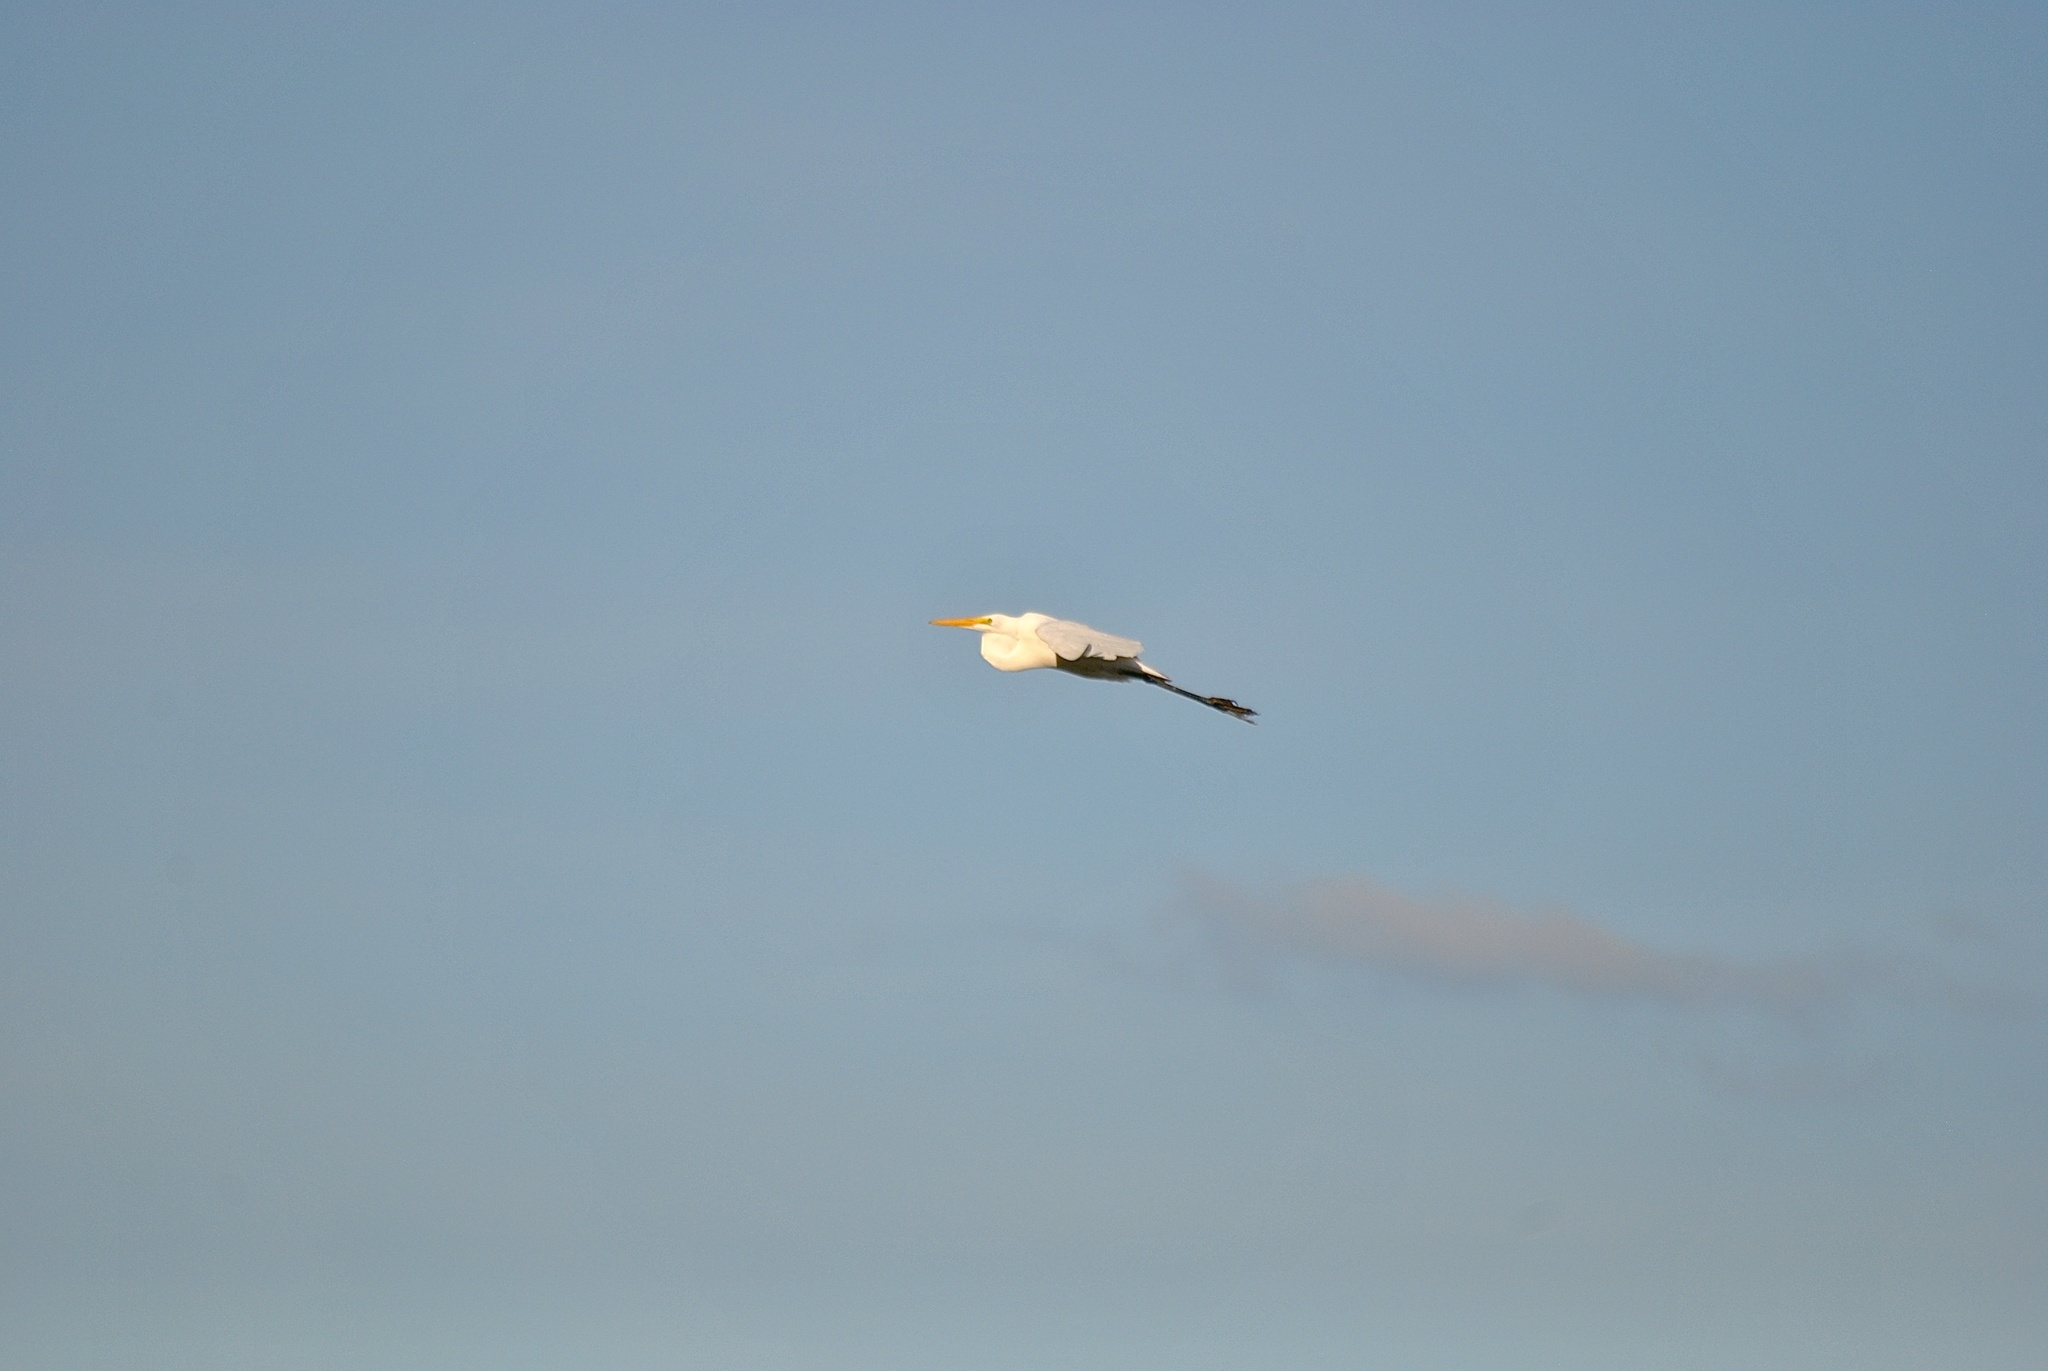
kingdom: Animalia
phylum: Chordata
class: Aves
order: Pelecaniformes
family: Ardeidae
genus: Ardea
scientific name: Ardea alba
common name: Great egret
